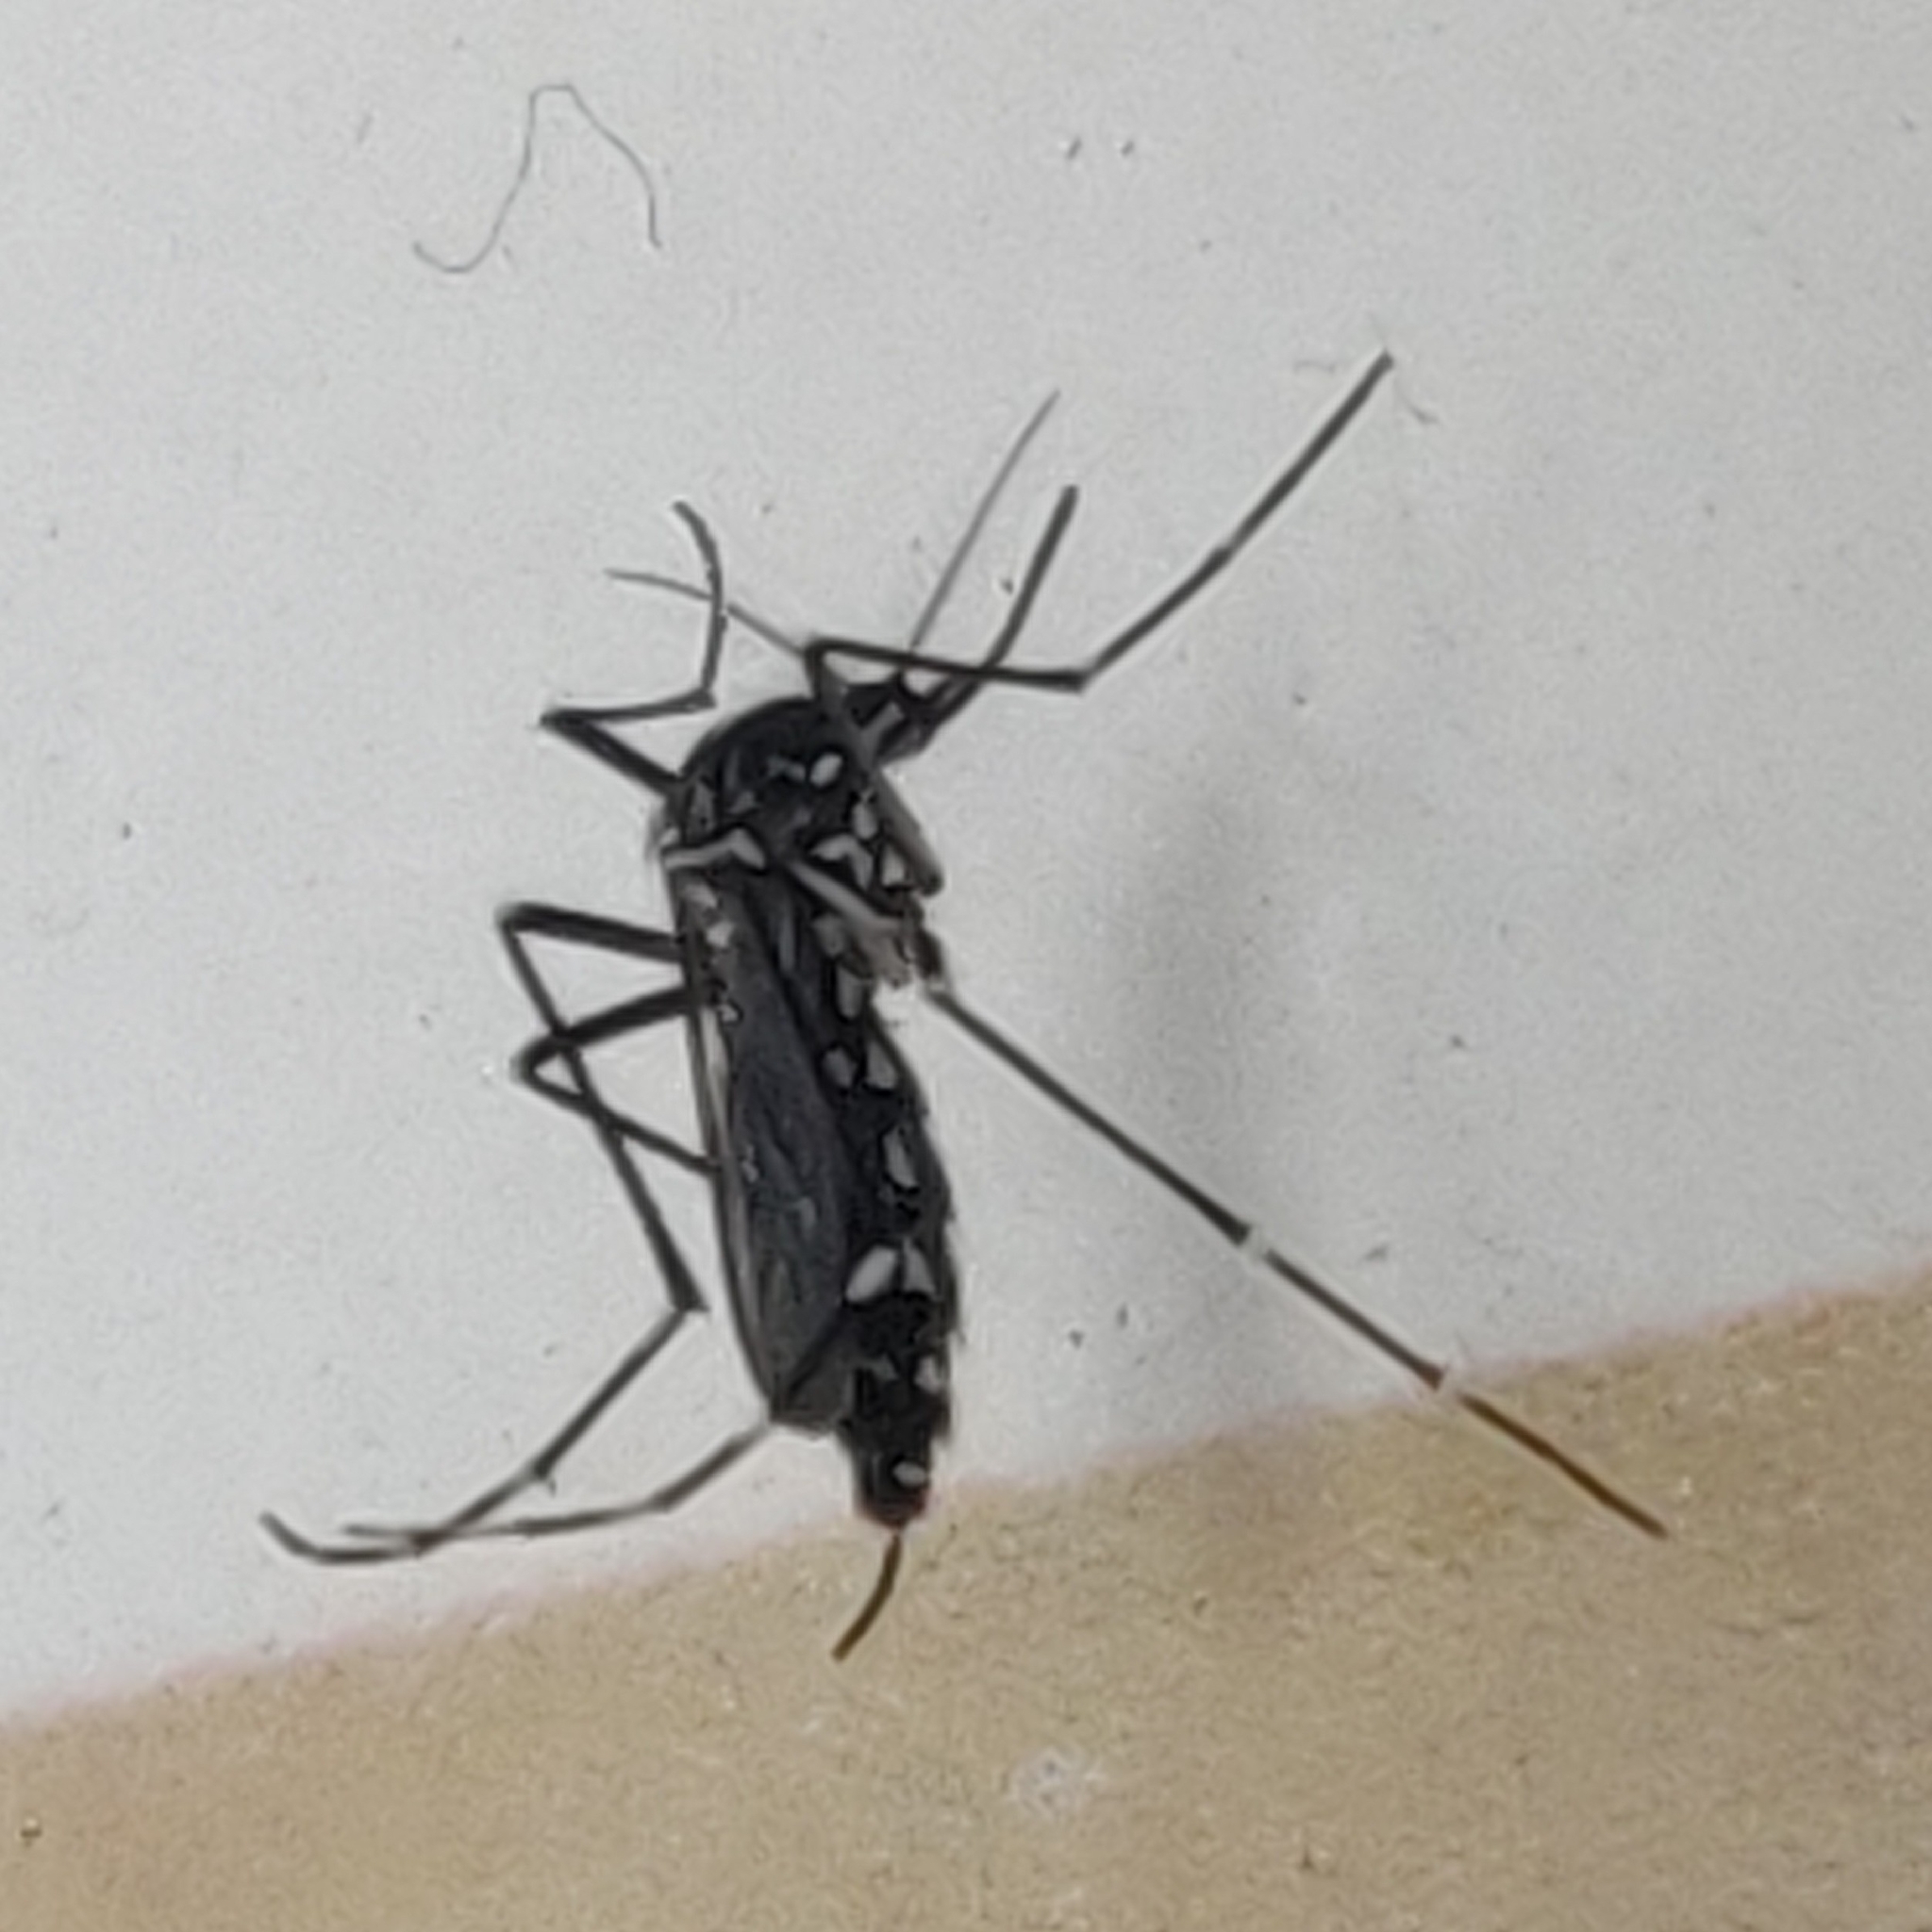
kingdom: Animalia
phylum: Arthropoda
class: Insecta
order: Diptera
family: Culicidae
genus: Aedes
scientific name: Aedes albopictus
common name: Tiger mosquito
